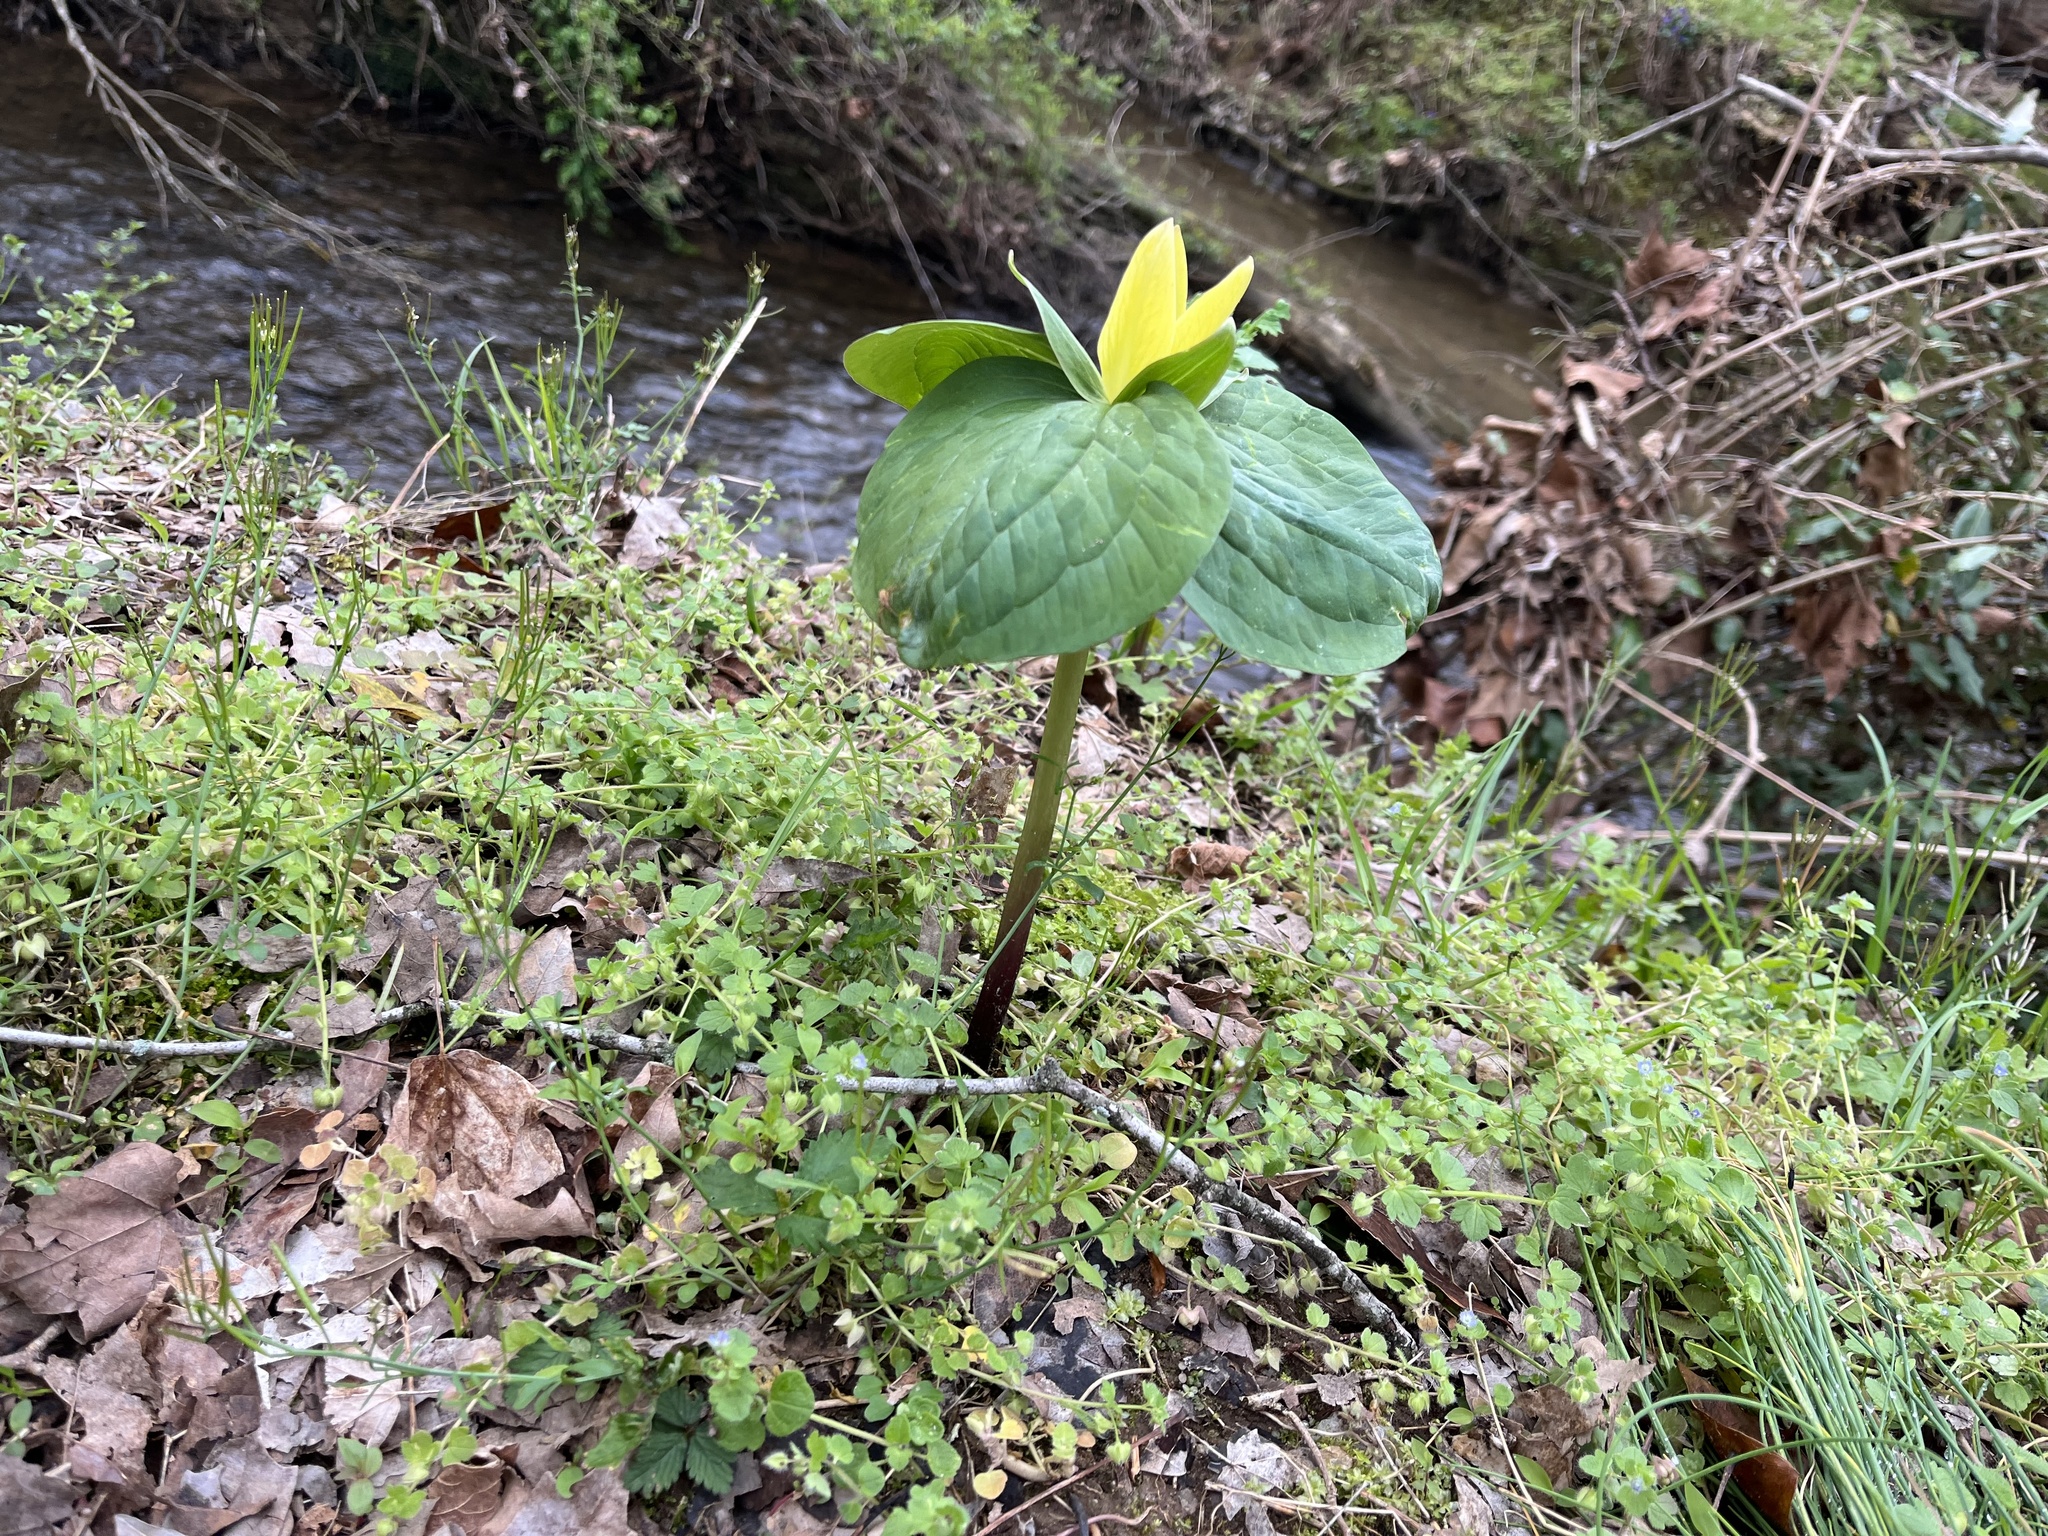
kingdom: Plantae
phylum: Tracheophyta
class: Liliopsida
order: Liliales
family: Melanthiaceae
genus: Trillium
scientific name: Trillium luteum
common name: Wax trillium
